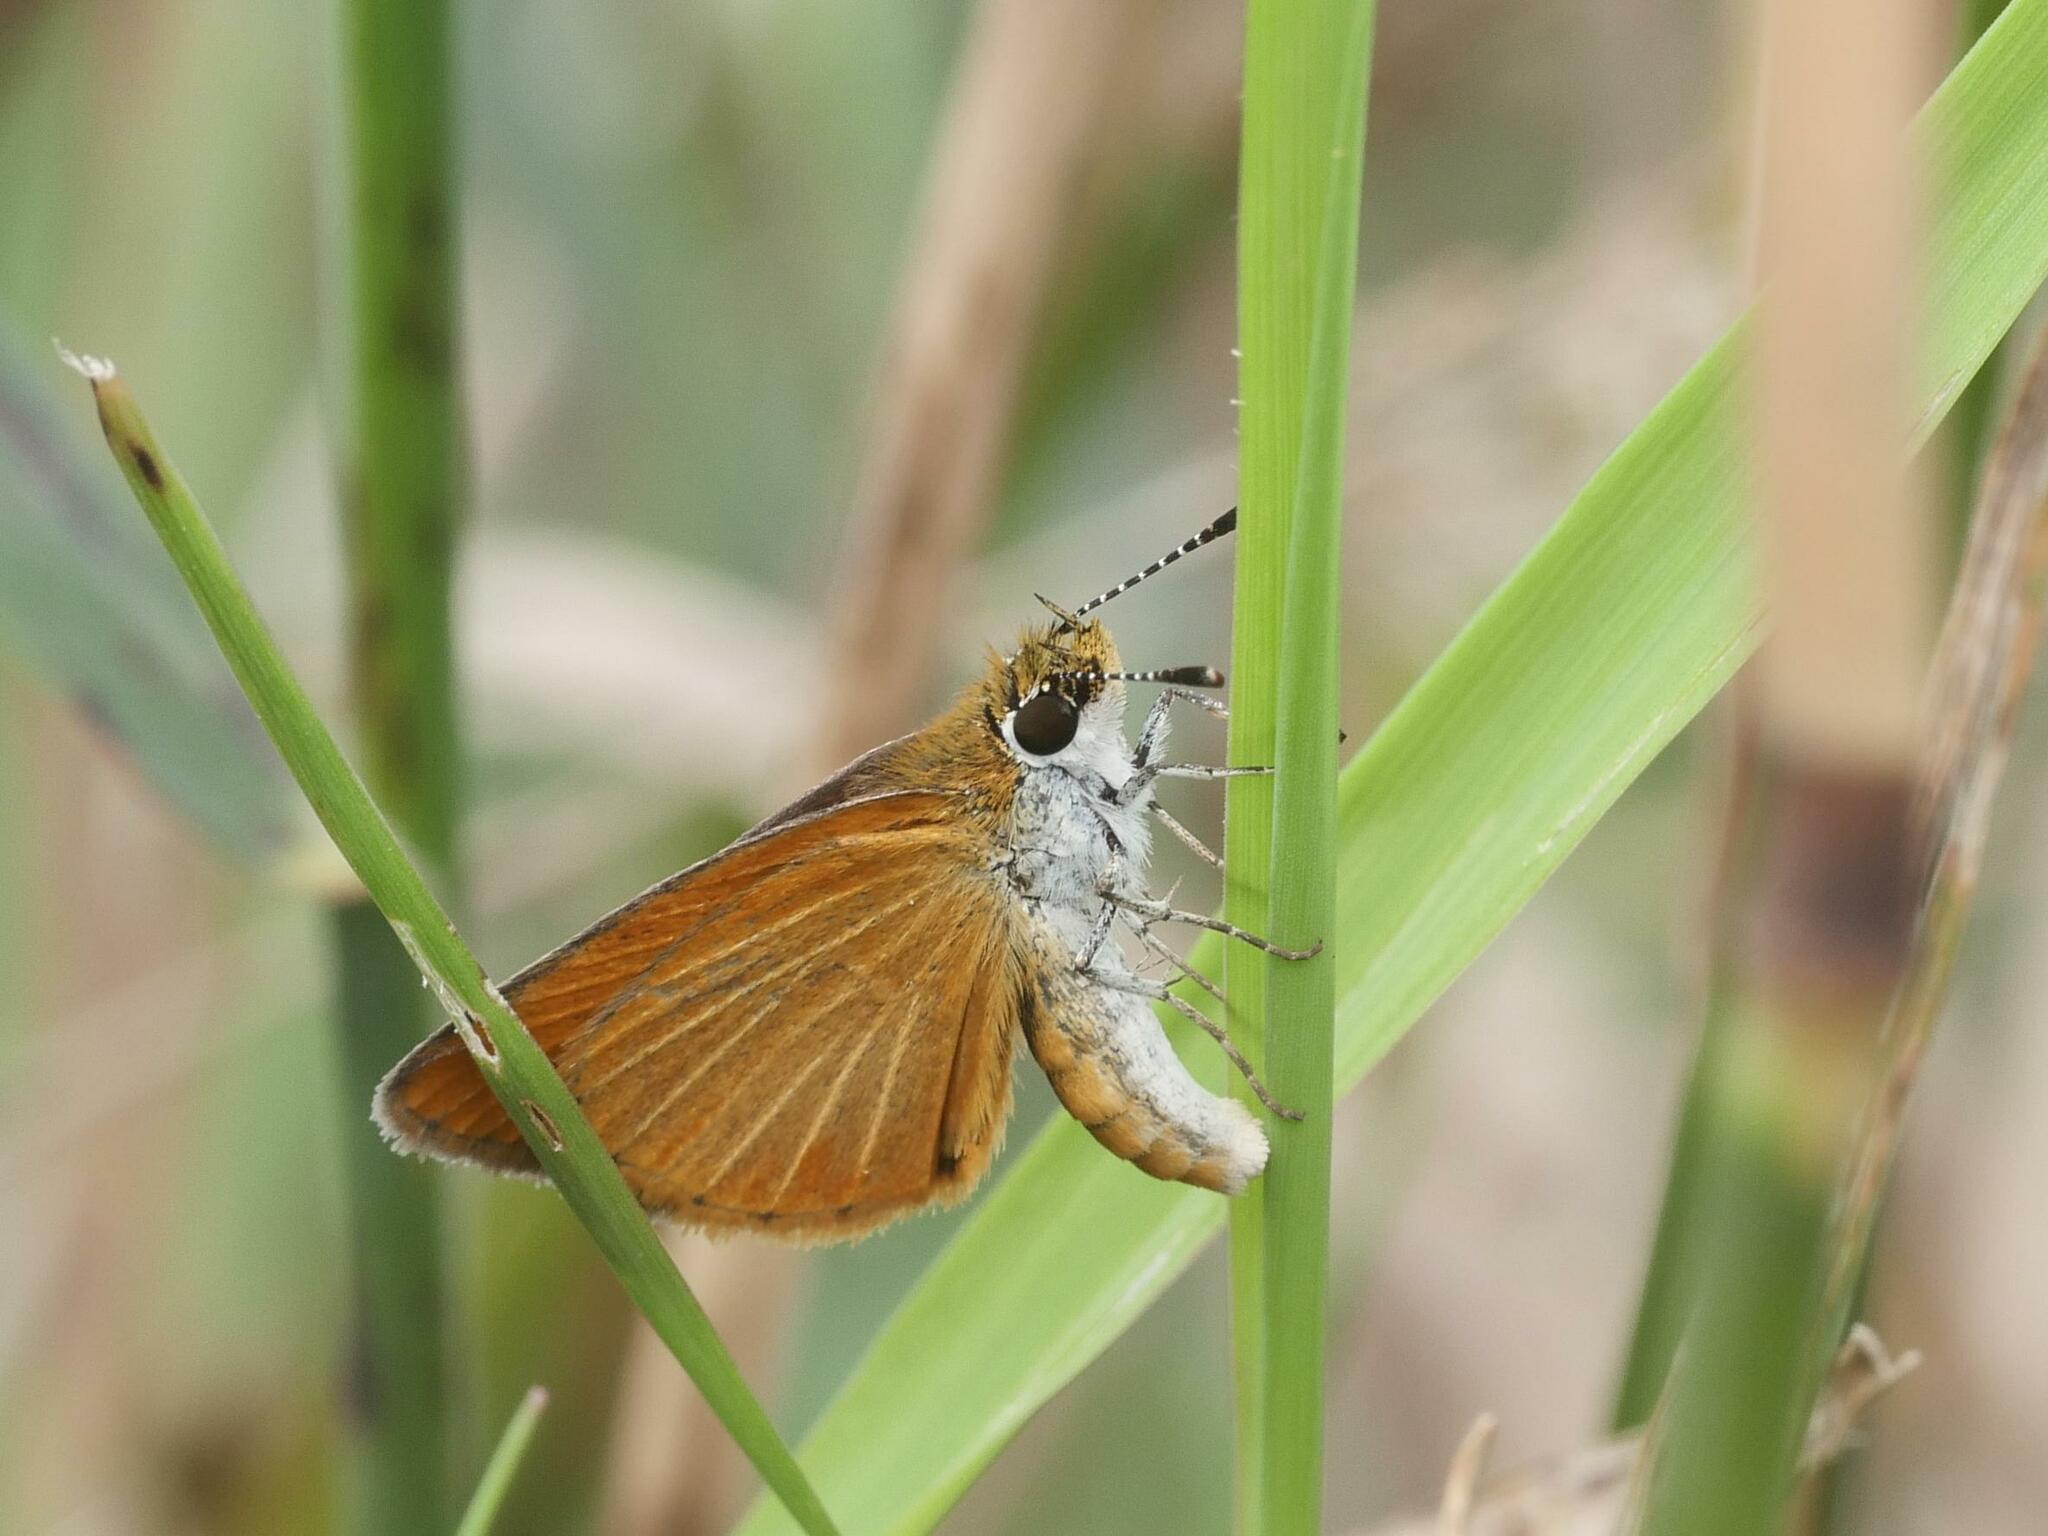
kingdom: Animalia
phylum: Arthropoda
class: Insecta
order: Lepidoptera
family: Hesperiidae
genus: Ancyloxypha
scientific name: Ancyloxypha numitor
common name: Least skipper
